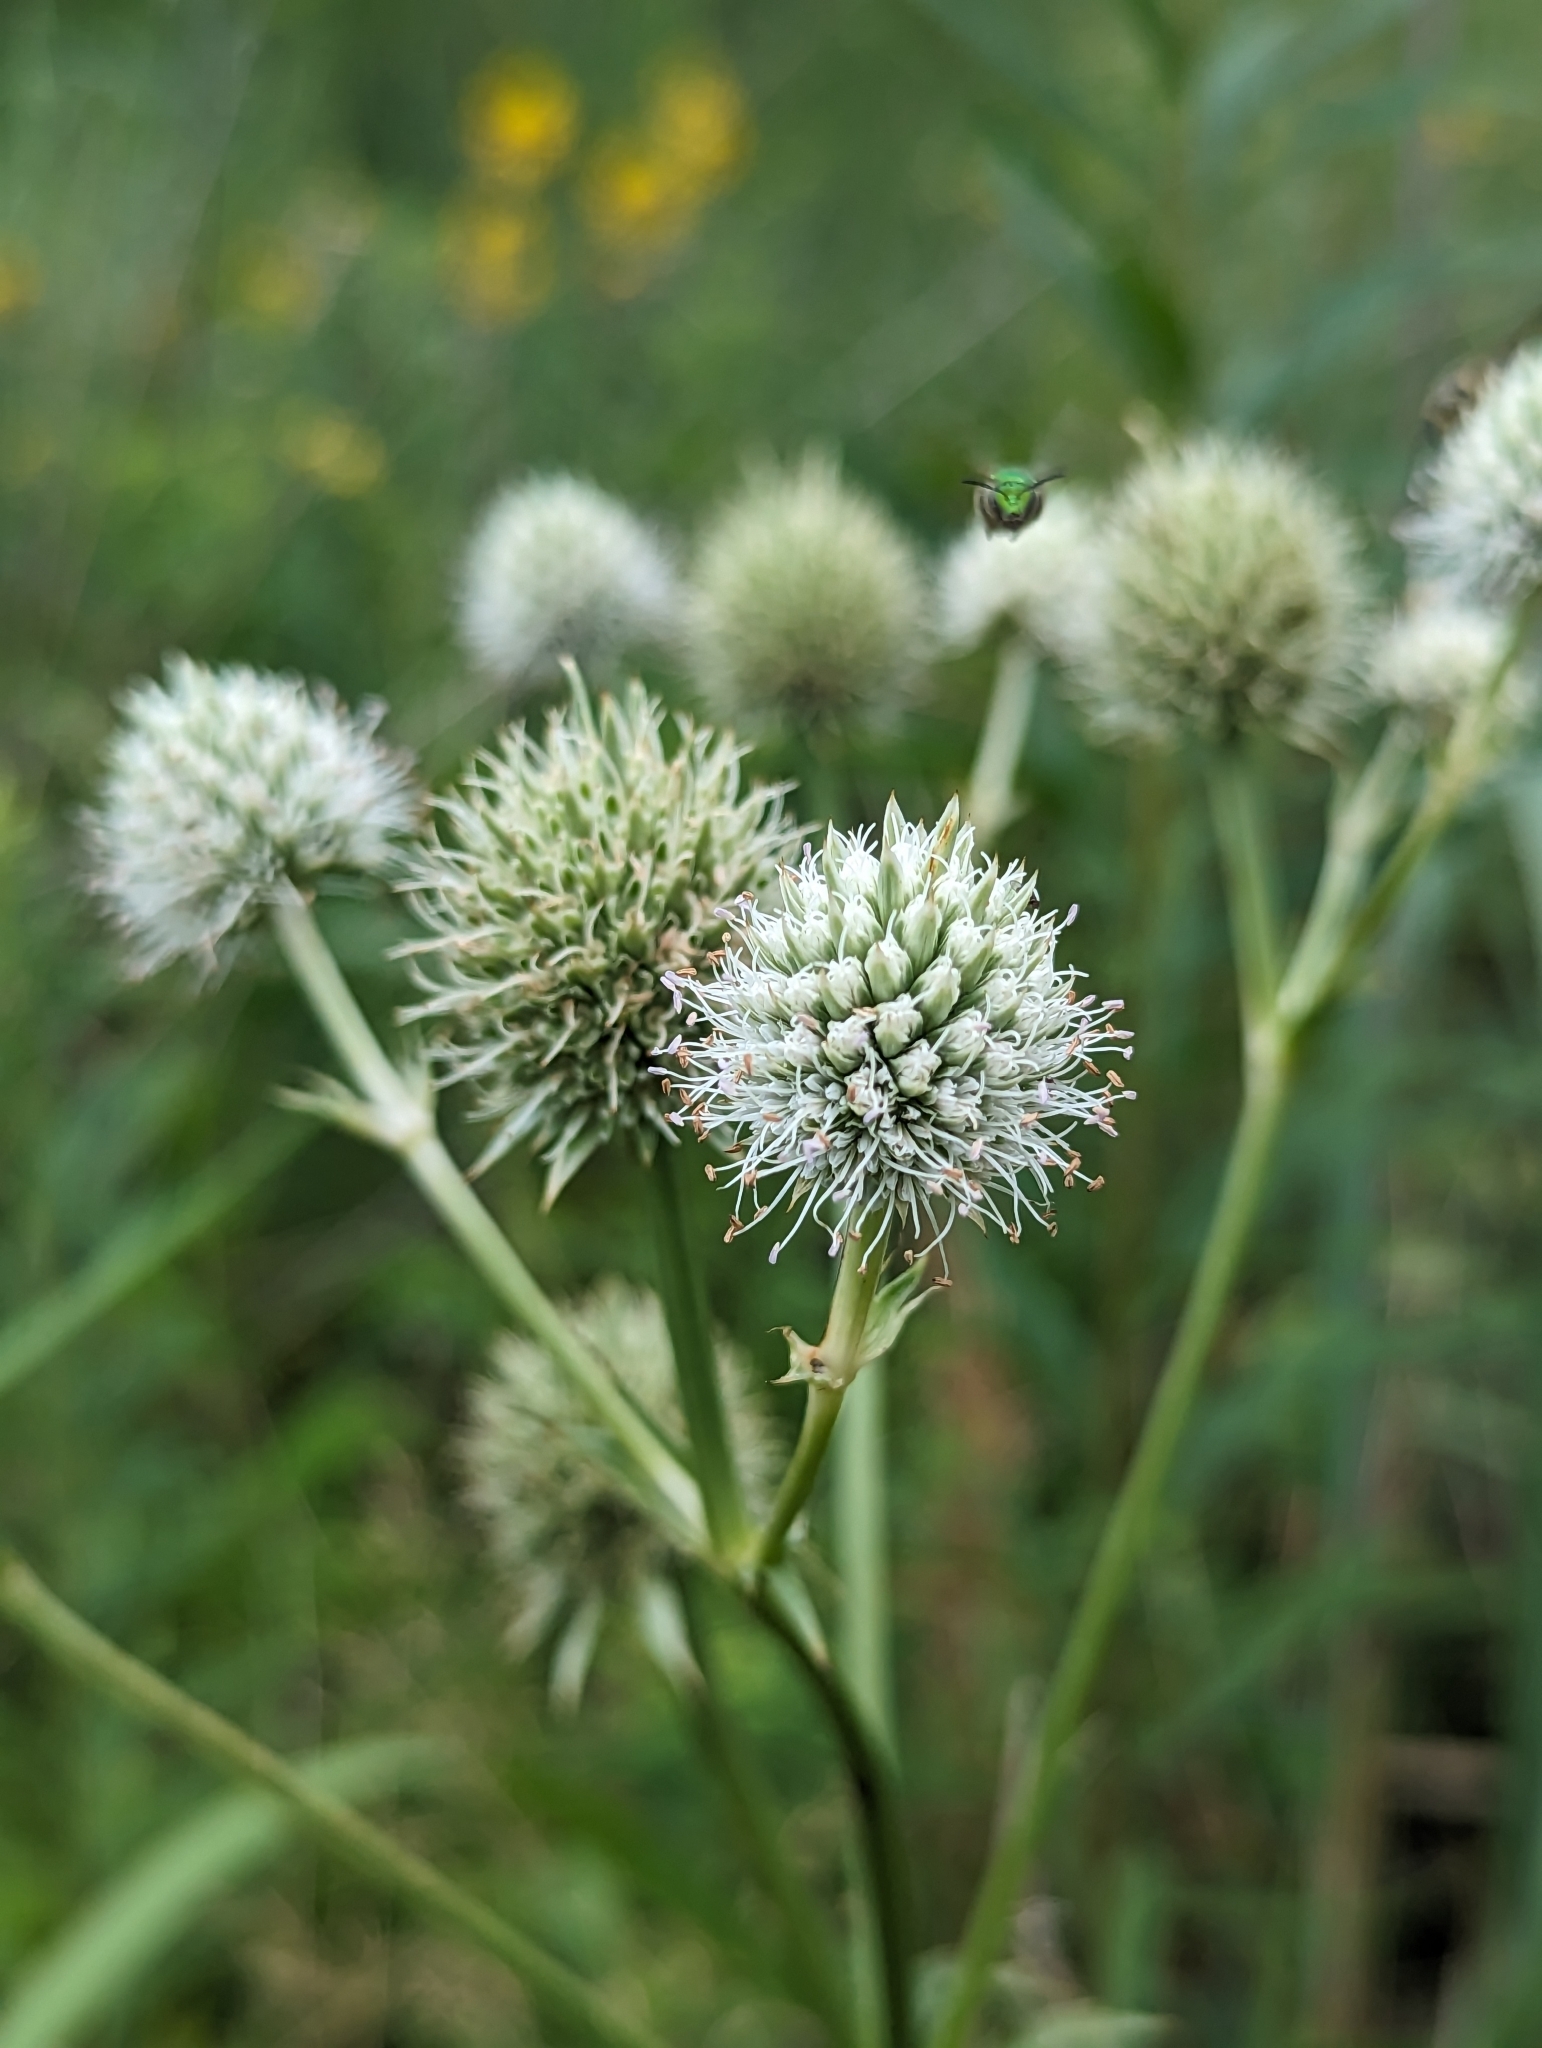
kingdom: Plantae
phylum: Tracheophyta
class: Magnoliopsida
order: Apiales
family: Apiaceae
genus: Eryngium
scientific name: Eryngium yuccifolium
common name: Button eryngo
